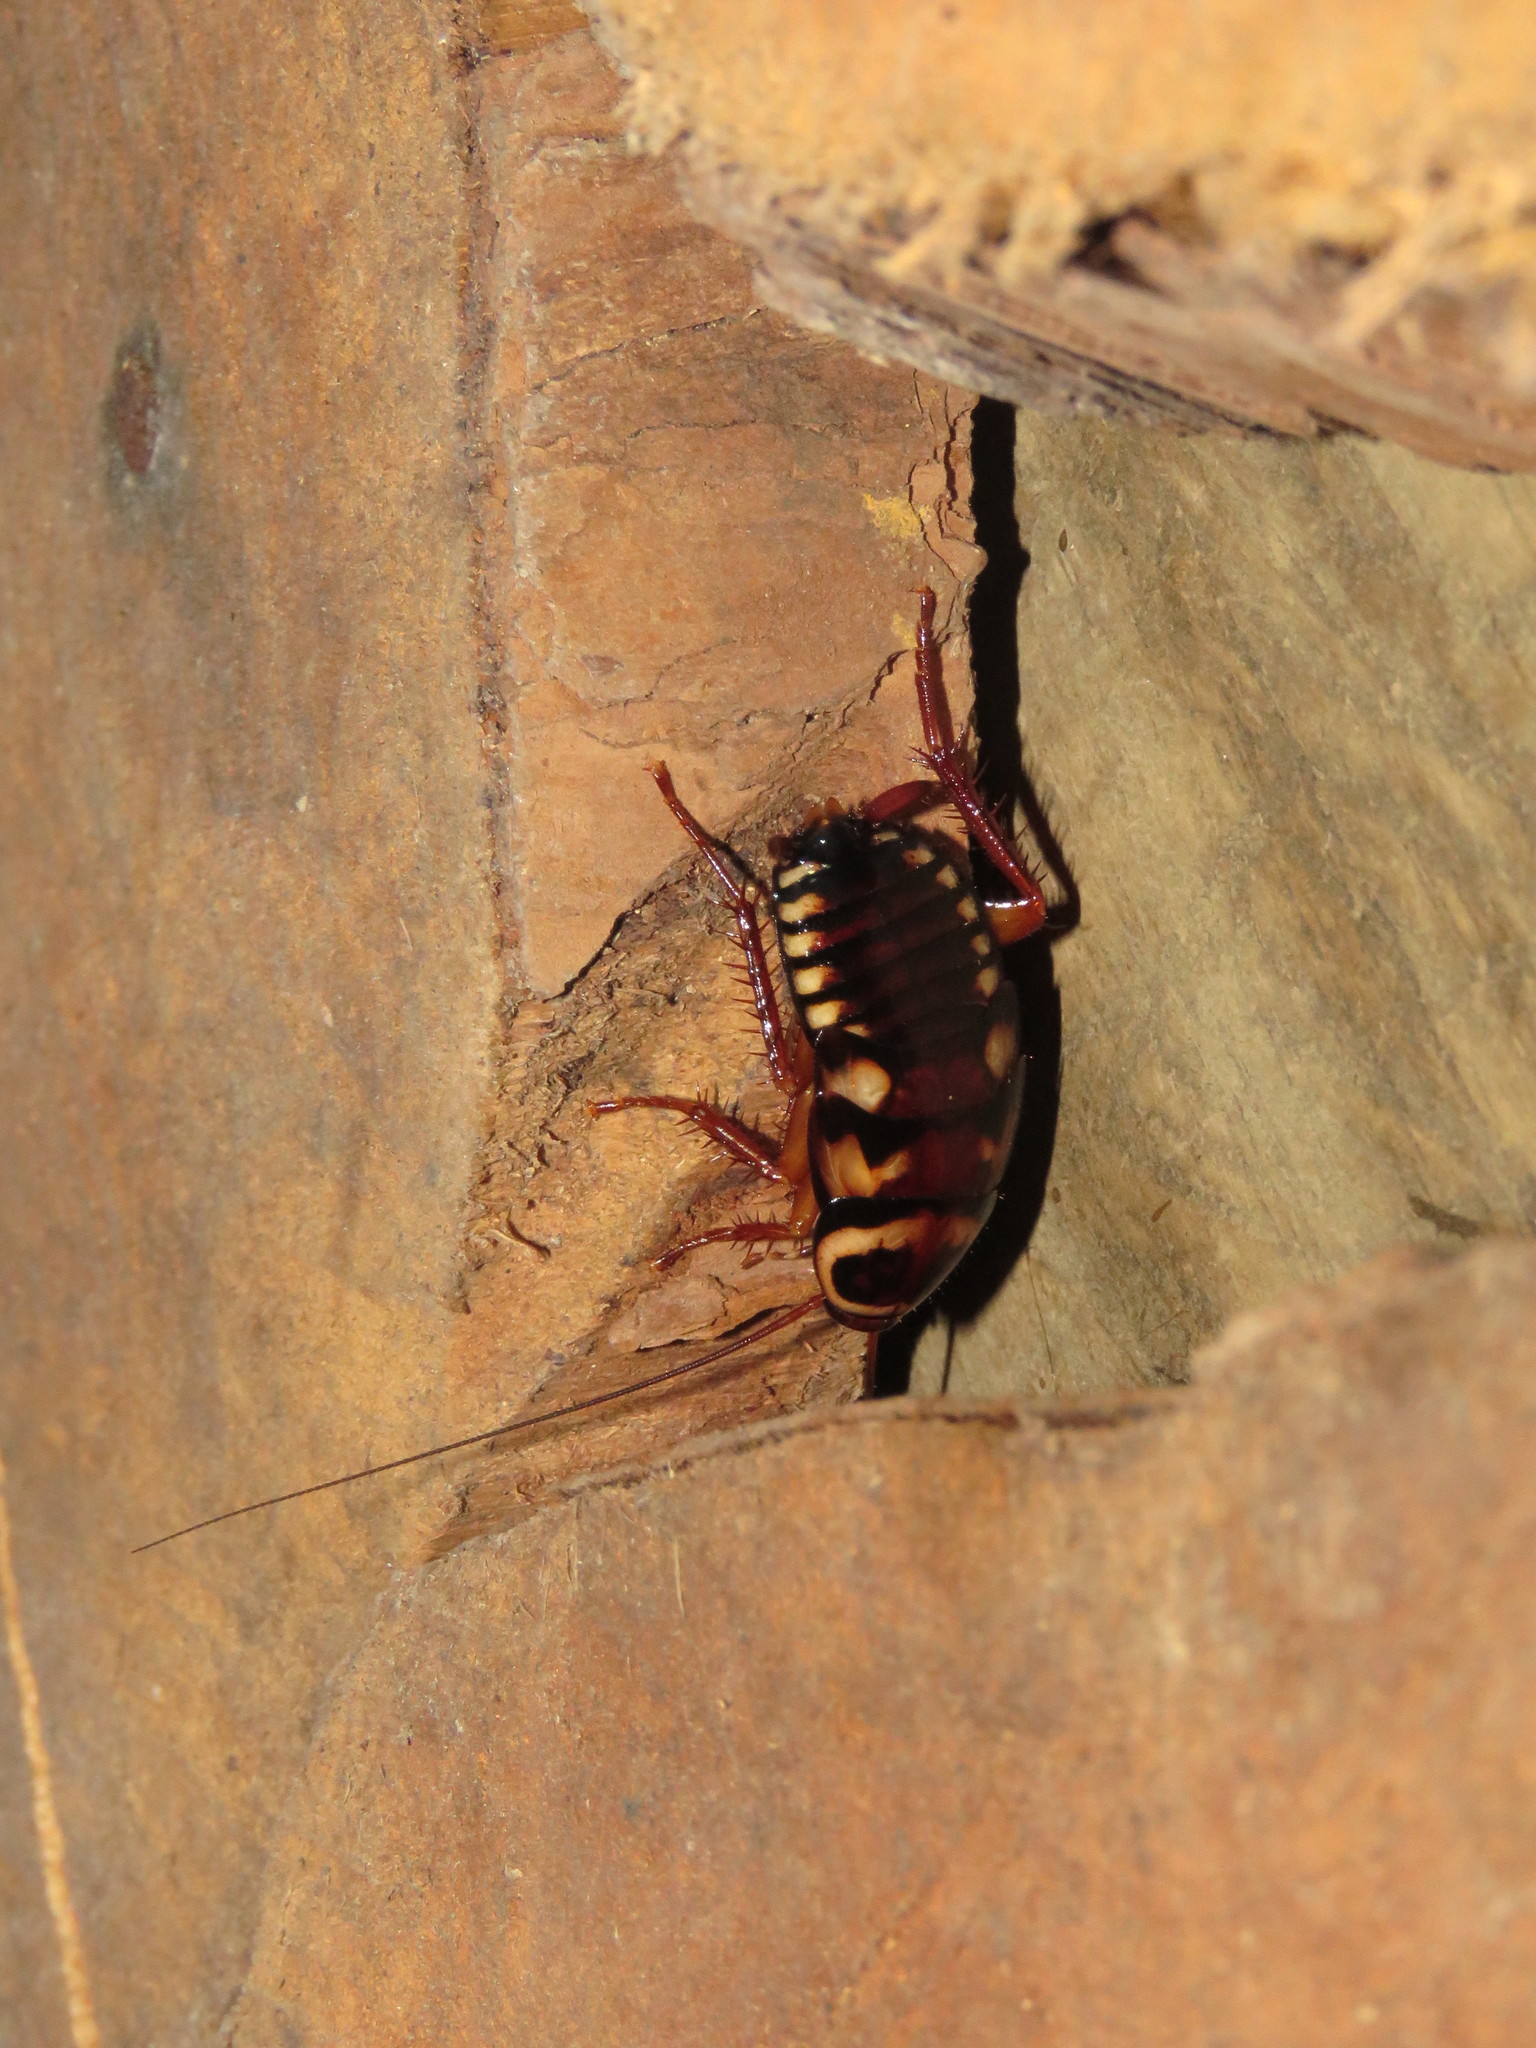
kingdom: Animalia
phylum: Arthropoda
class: Insecta
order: Blattodea
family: Blattidae
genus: Periplaneta
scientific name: Periplaneta australasiae
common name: Australian cockroach
